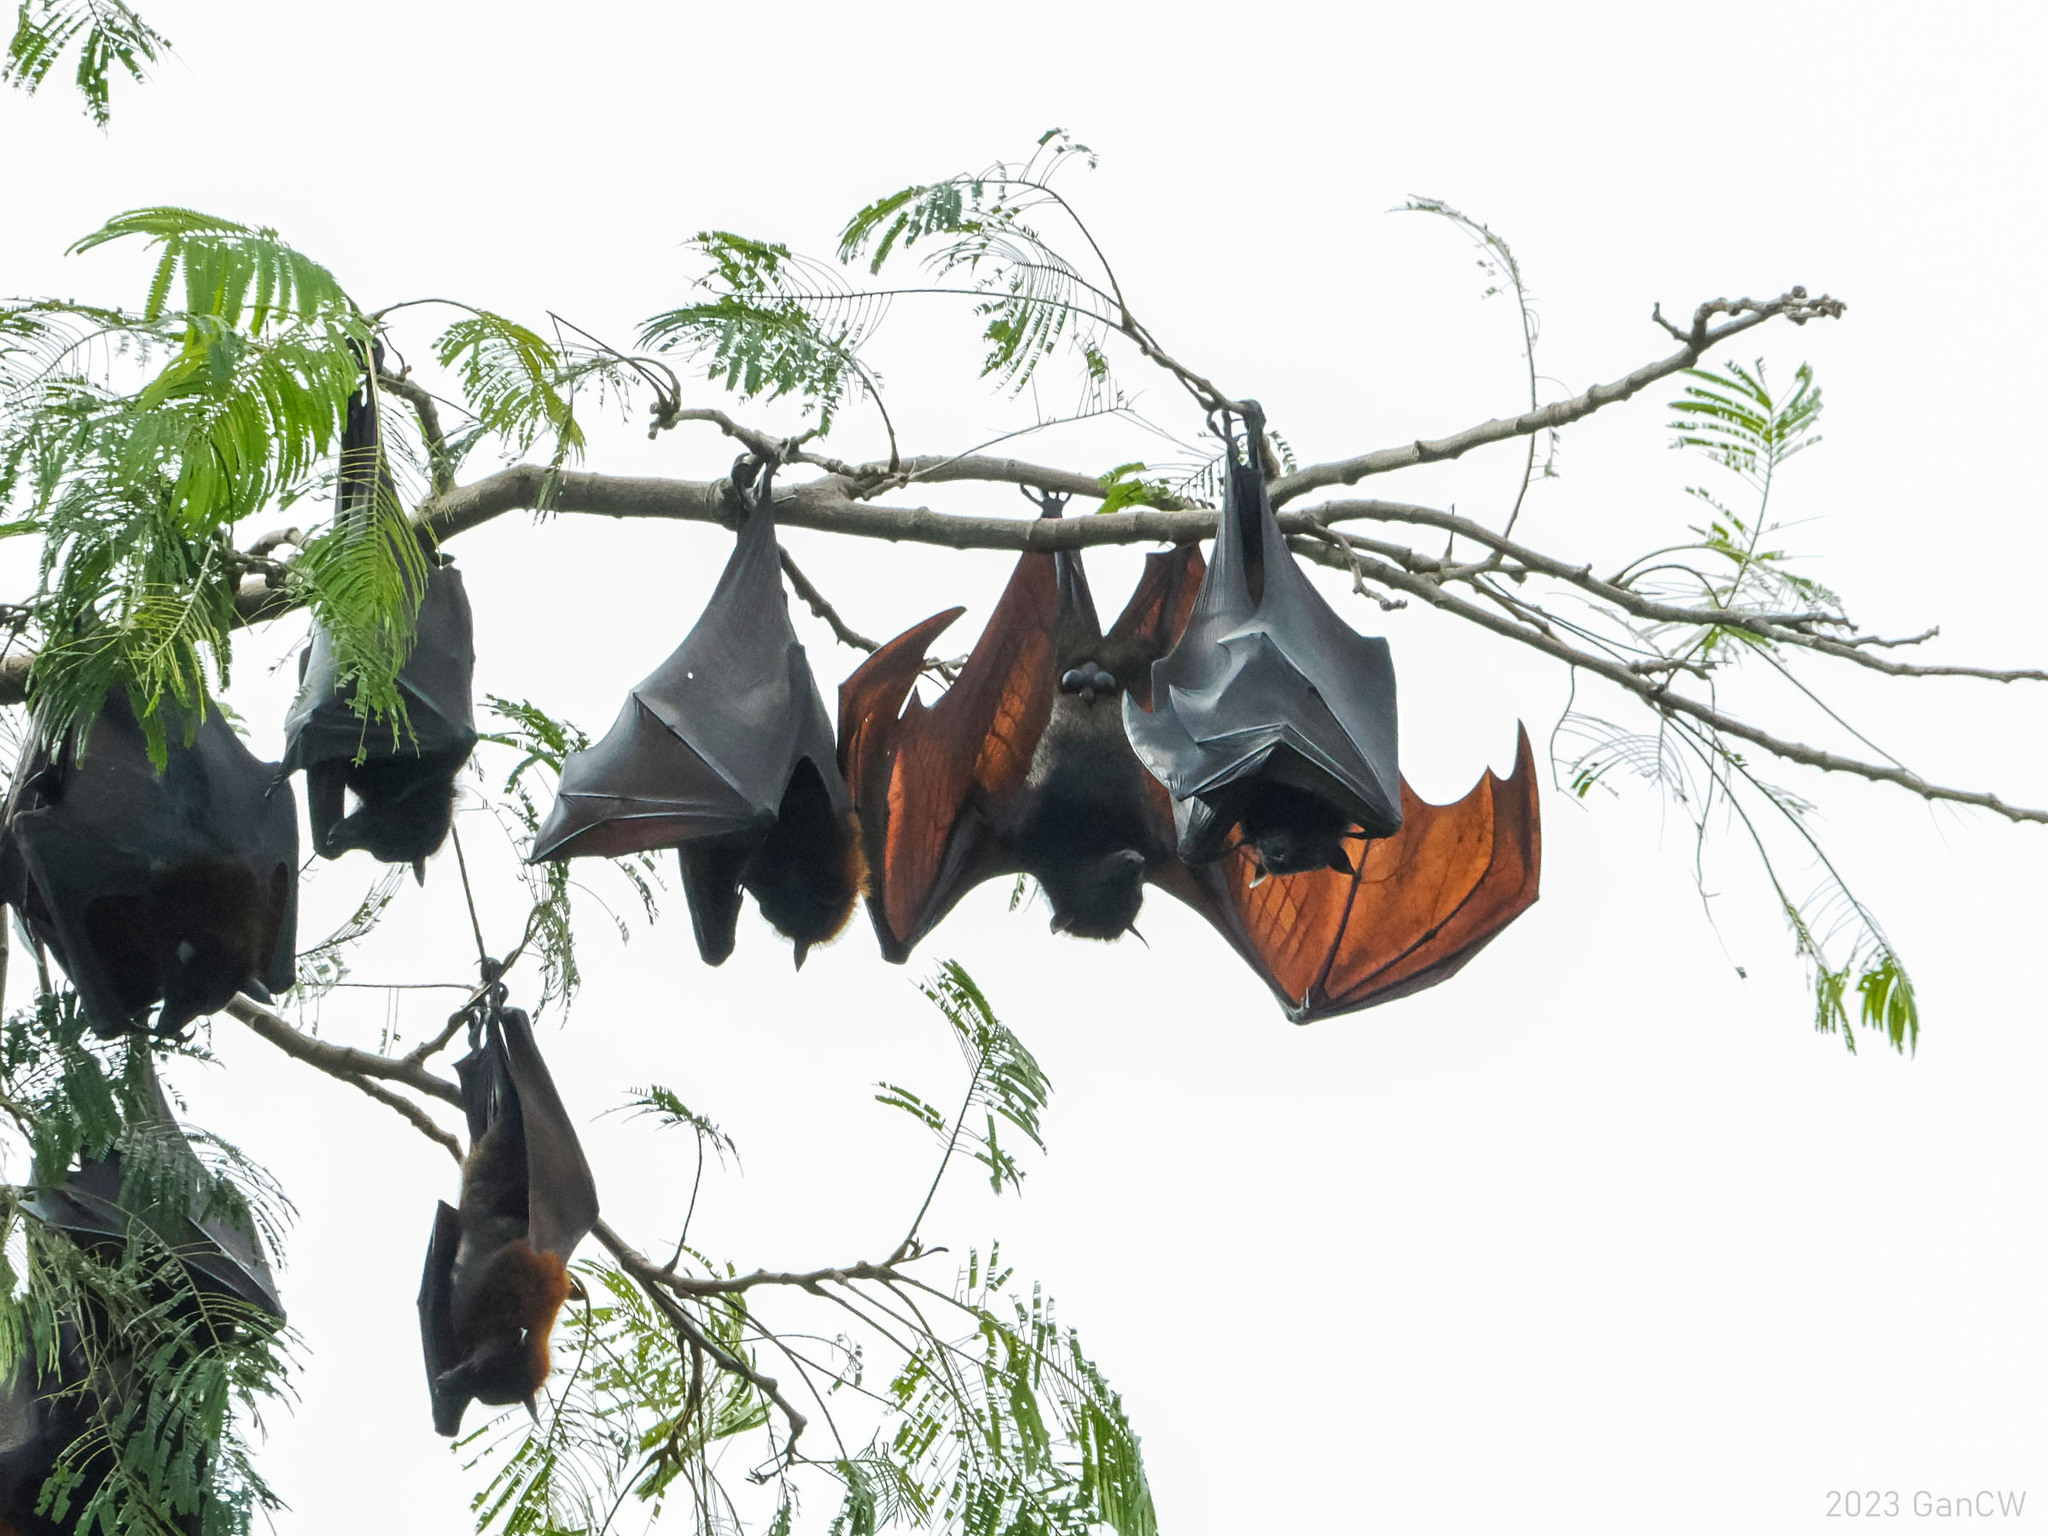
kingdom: Animalia
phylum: Chordata
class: Mammalia
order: Chiroptera
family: Pteropodidae
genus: Pteropus
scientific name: Pteropus vampyrus
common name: Large flying fox
